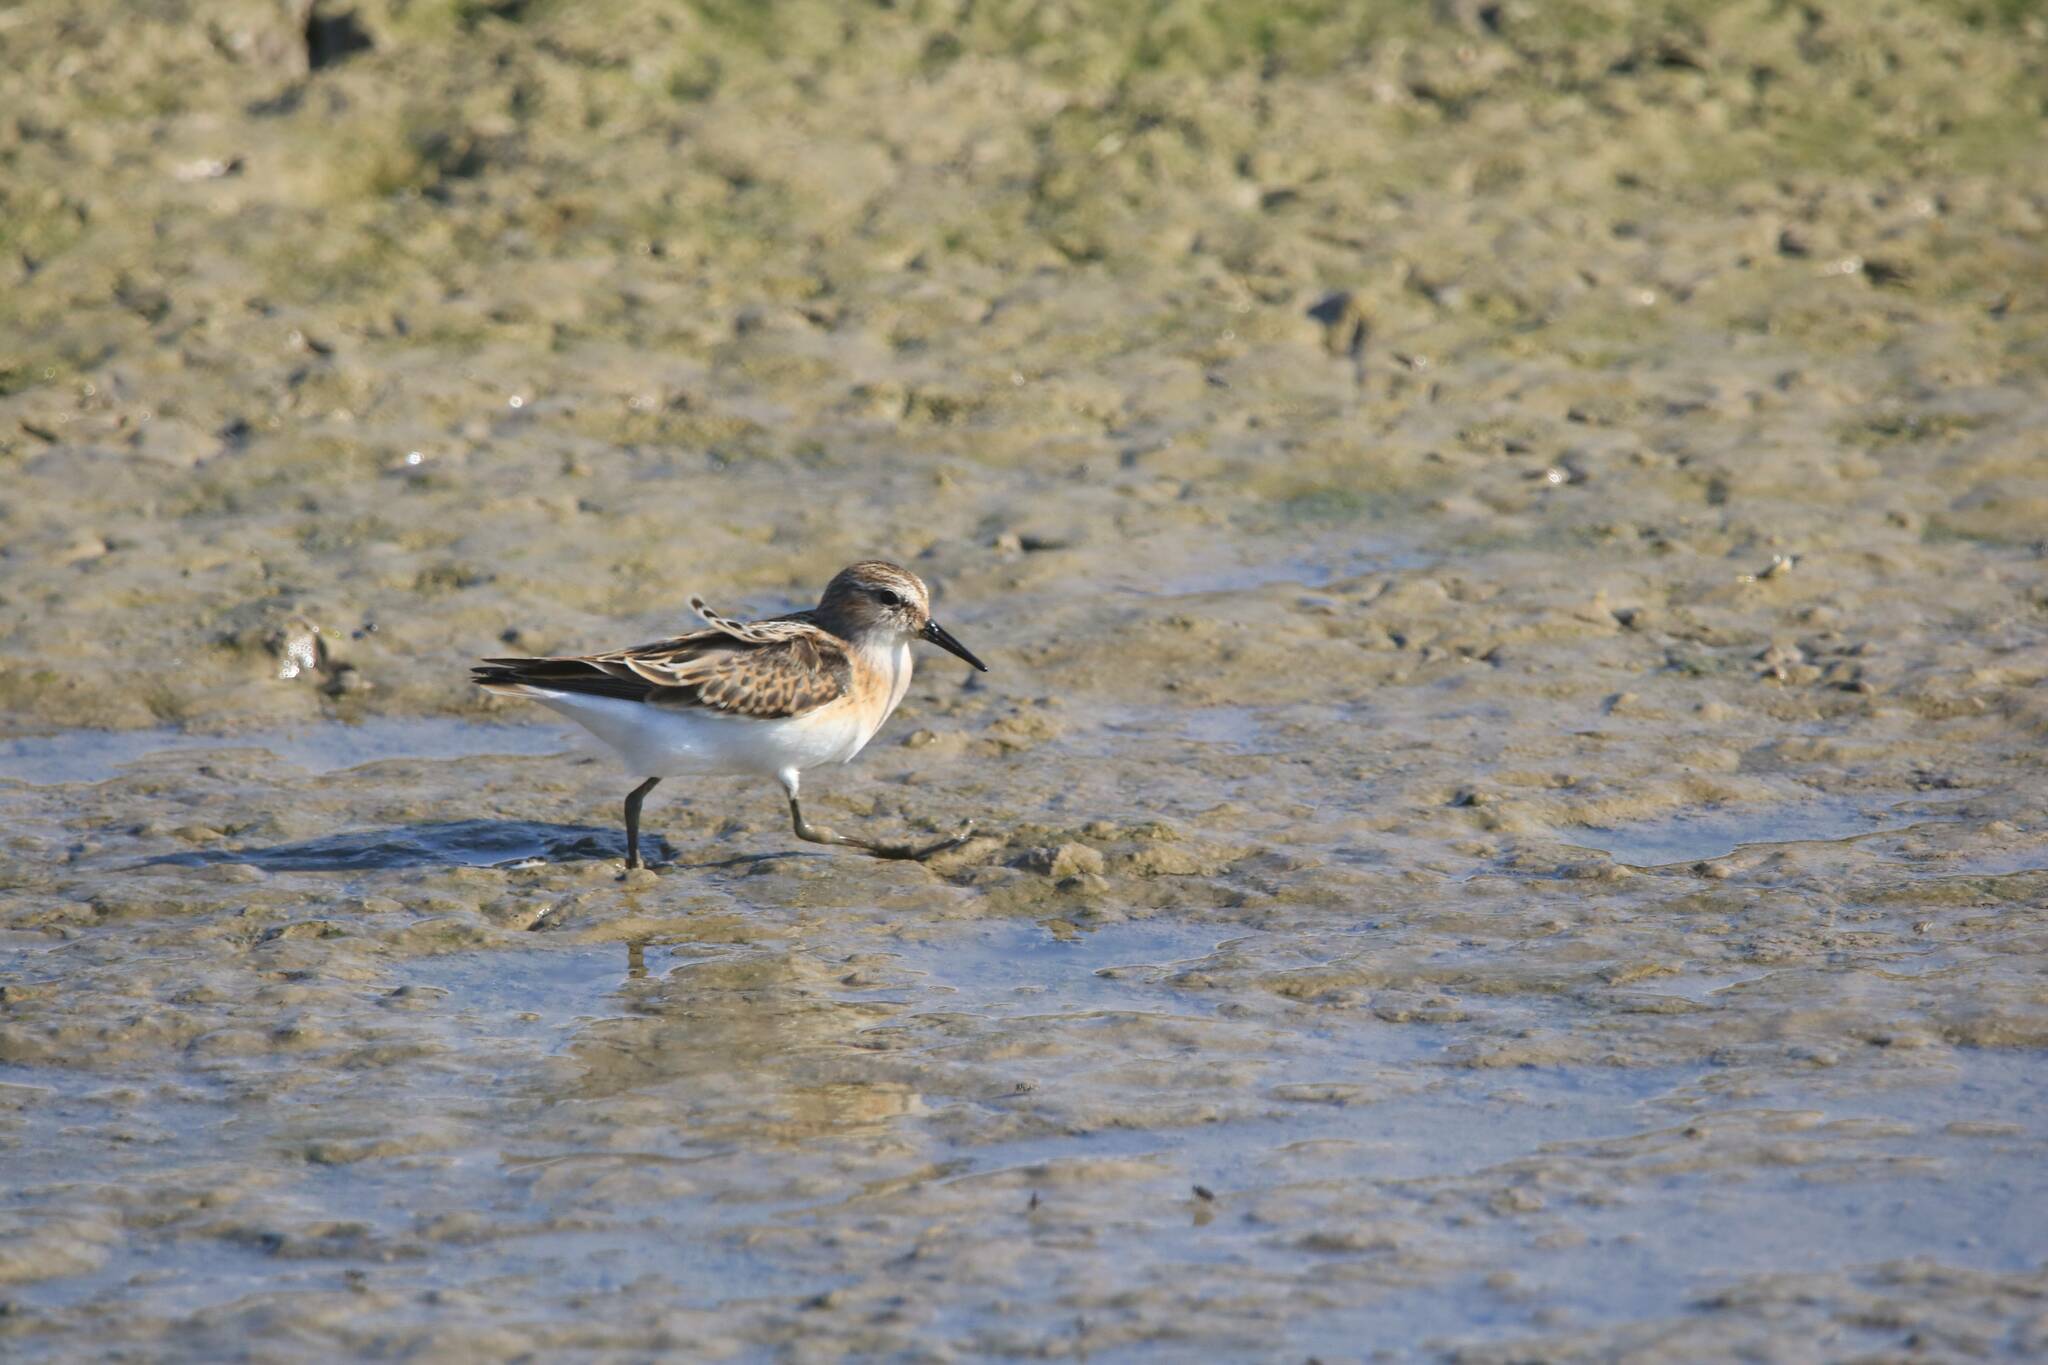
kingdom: Animalia
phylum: Chordata
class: Aves
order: Charadriiformes
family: Scolopacidae
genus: Calidris
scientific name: Calidris minuta
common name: Little stint
